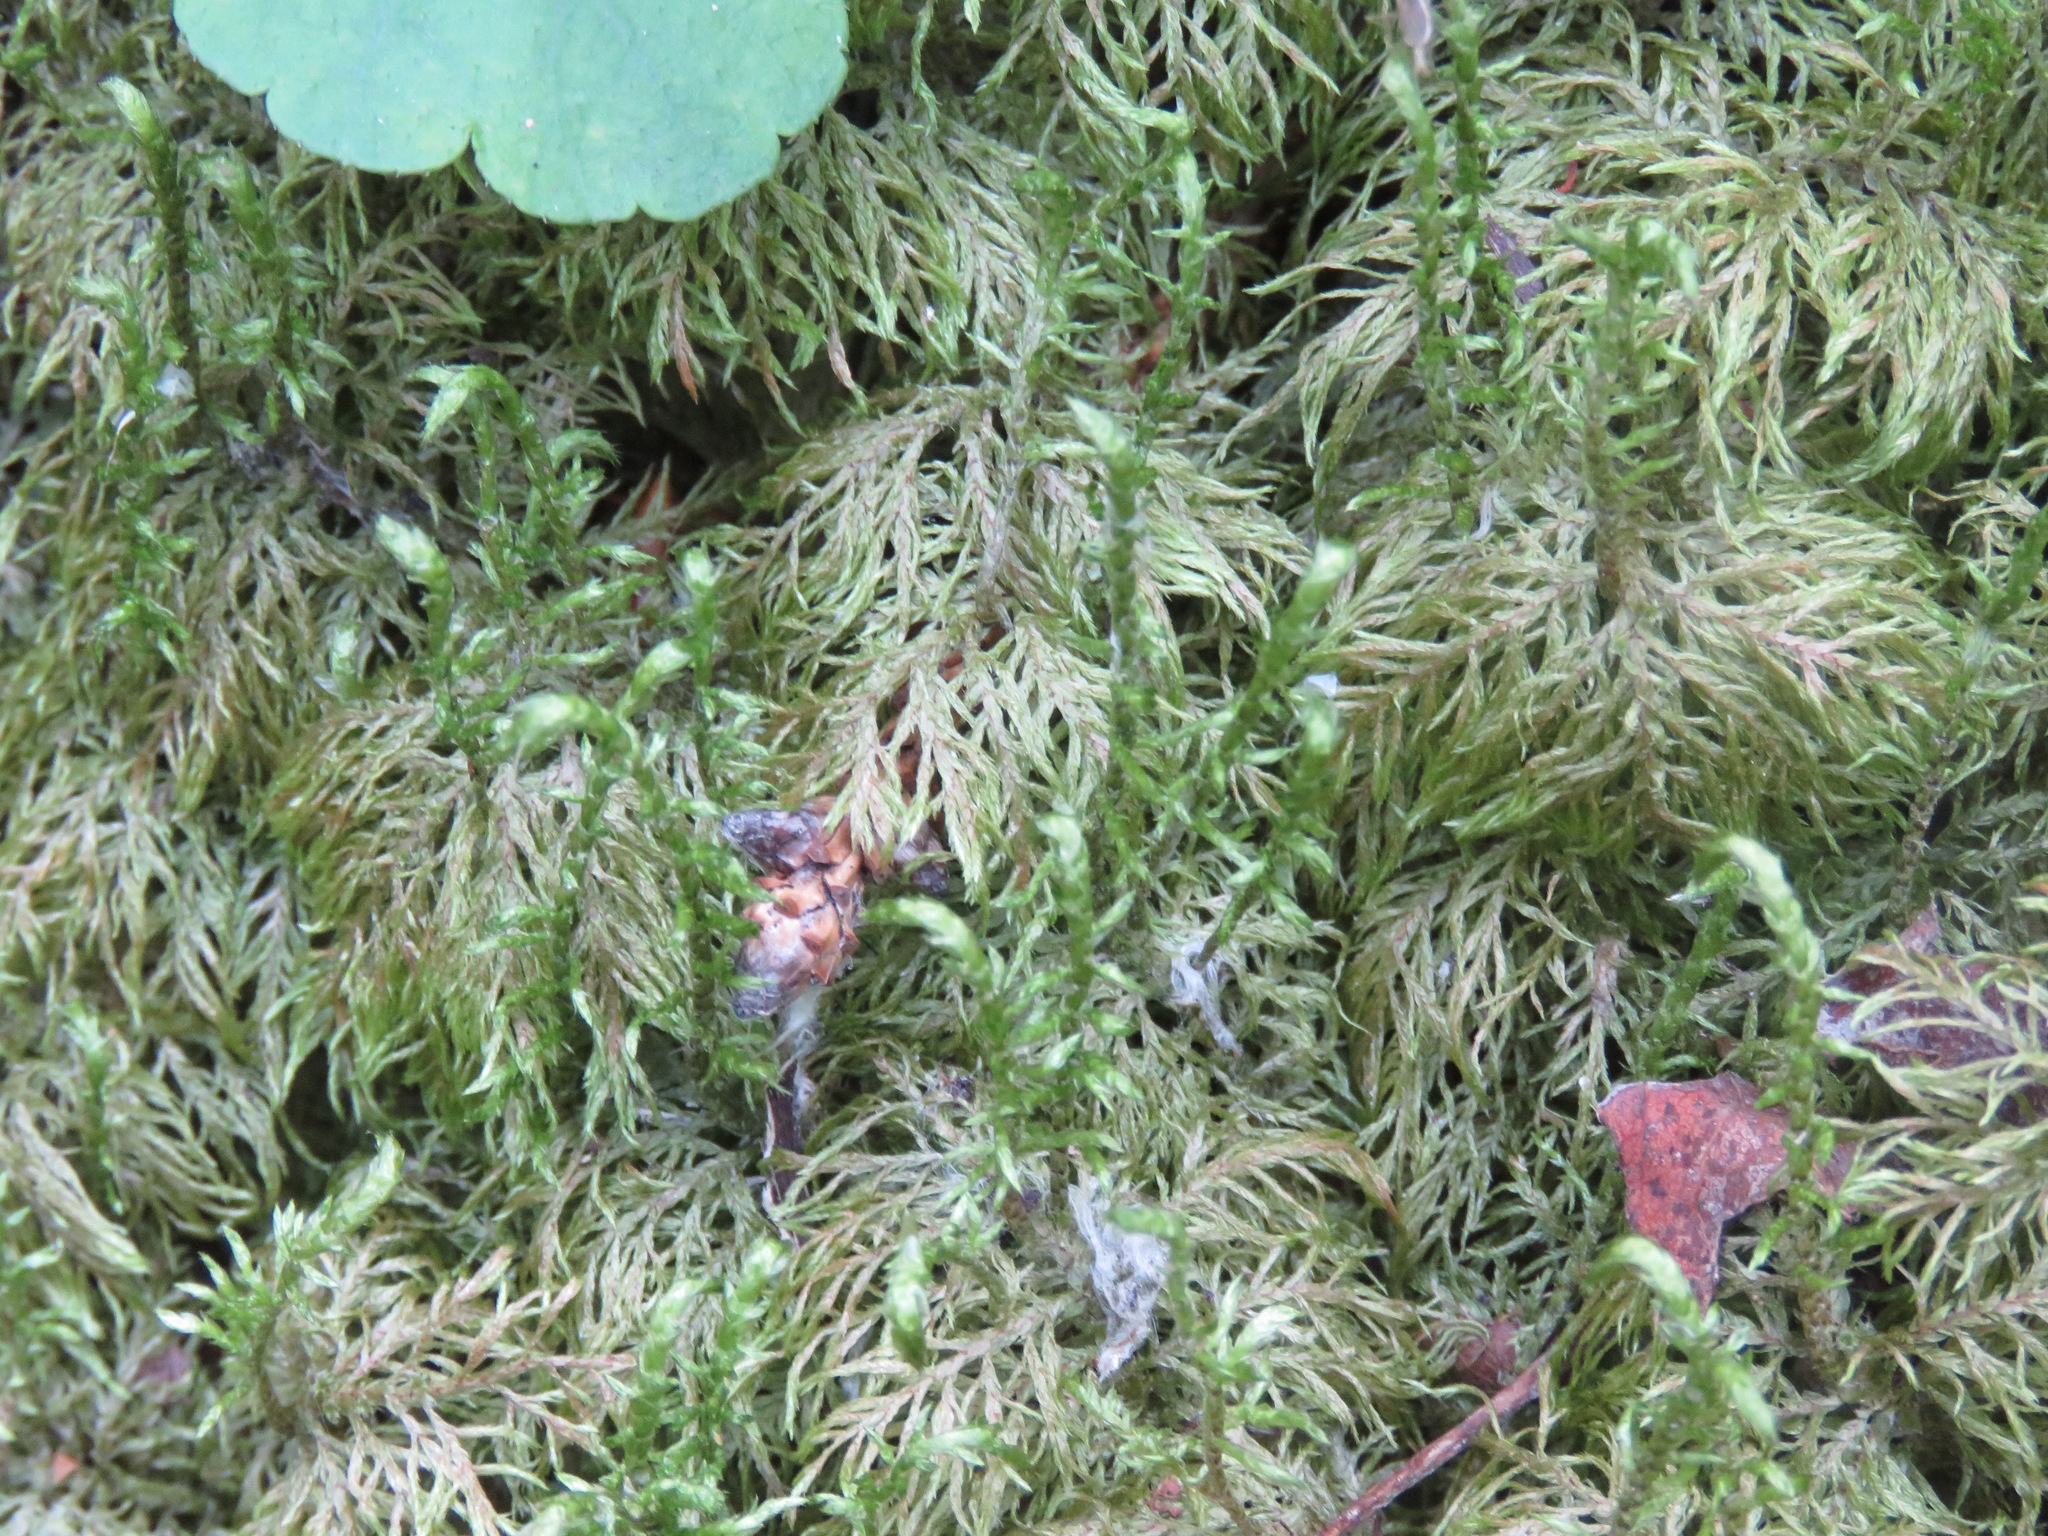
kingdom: Plantae
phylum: Bryophyta
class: Bryopsida
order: Hypnales
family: Hylocomiaceae
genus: Hylocomium
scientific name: Hylocomium splendens
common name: Stairstep moss
